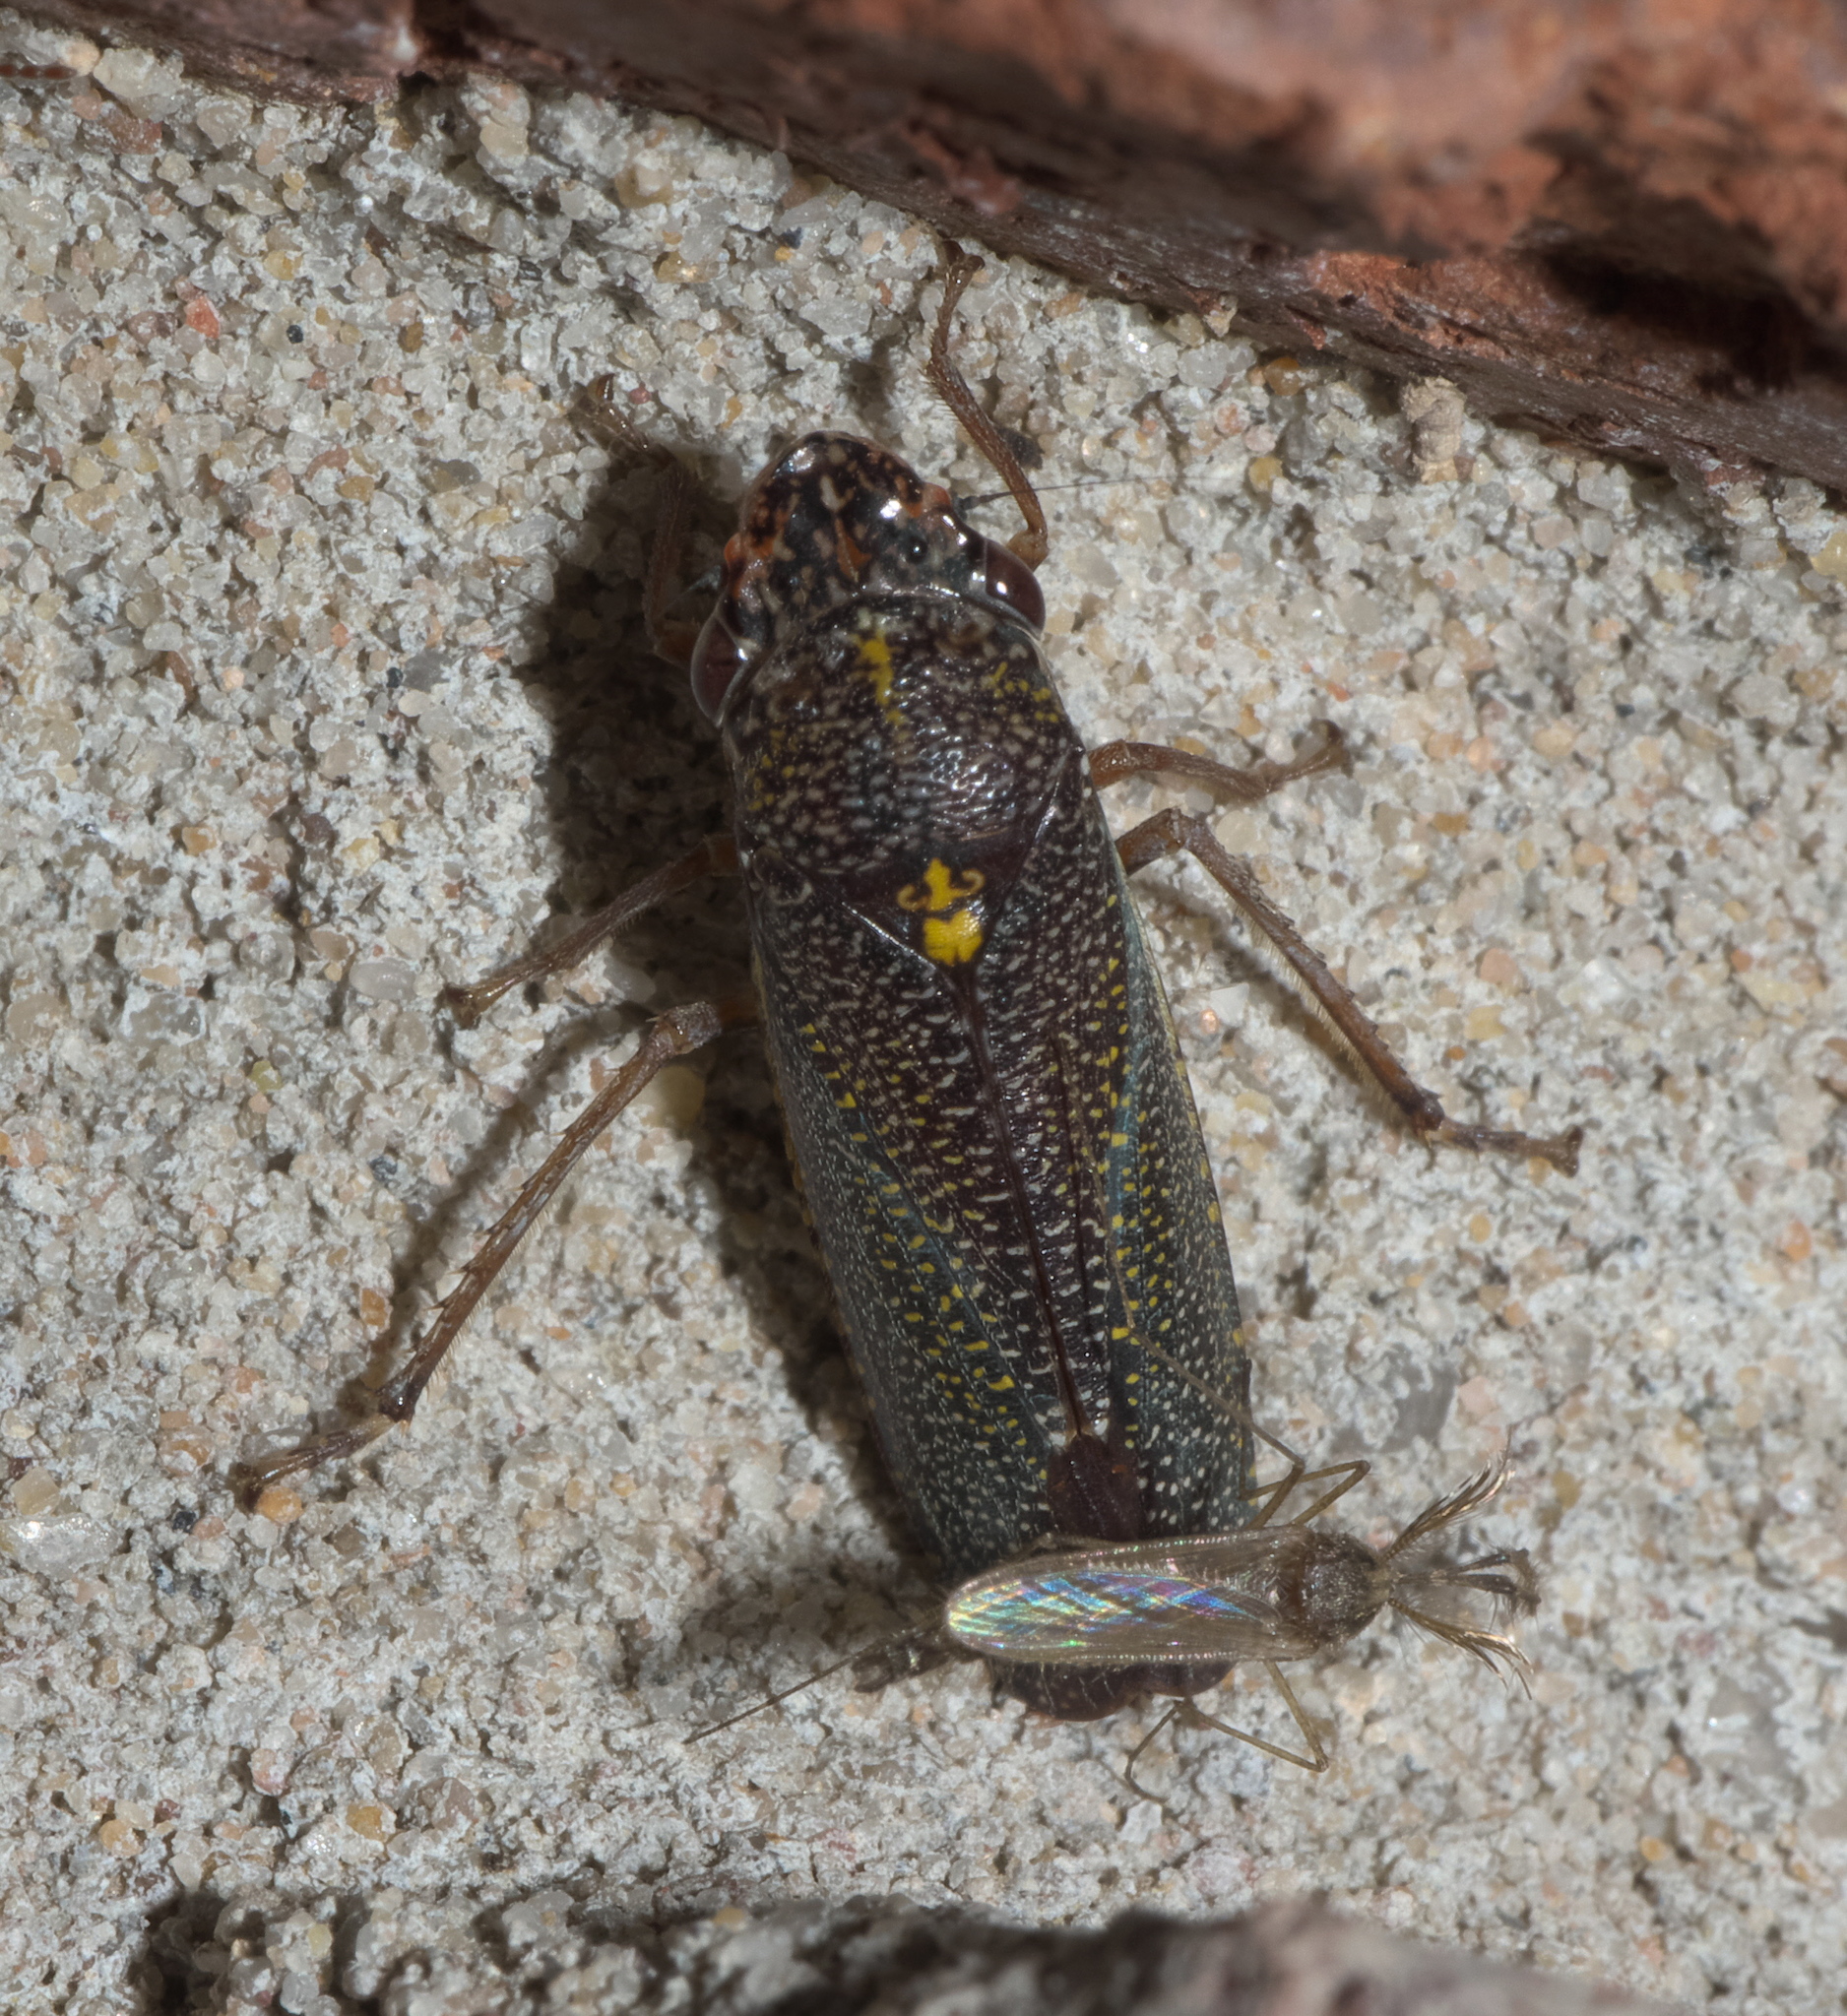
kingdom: Animalia
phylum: Arthropoda
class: Insecta
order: Hemiptera
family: Cicadellidae
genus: Paraulacizes
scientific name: Paraulacizes irrorata
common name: Speckled sharpshooter
